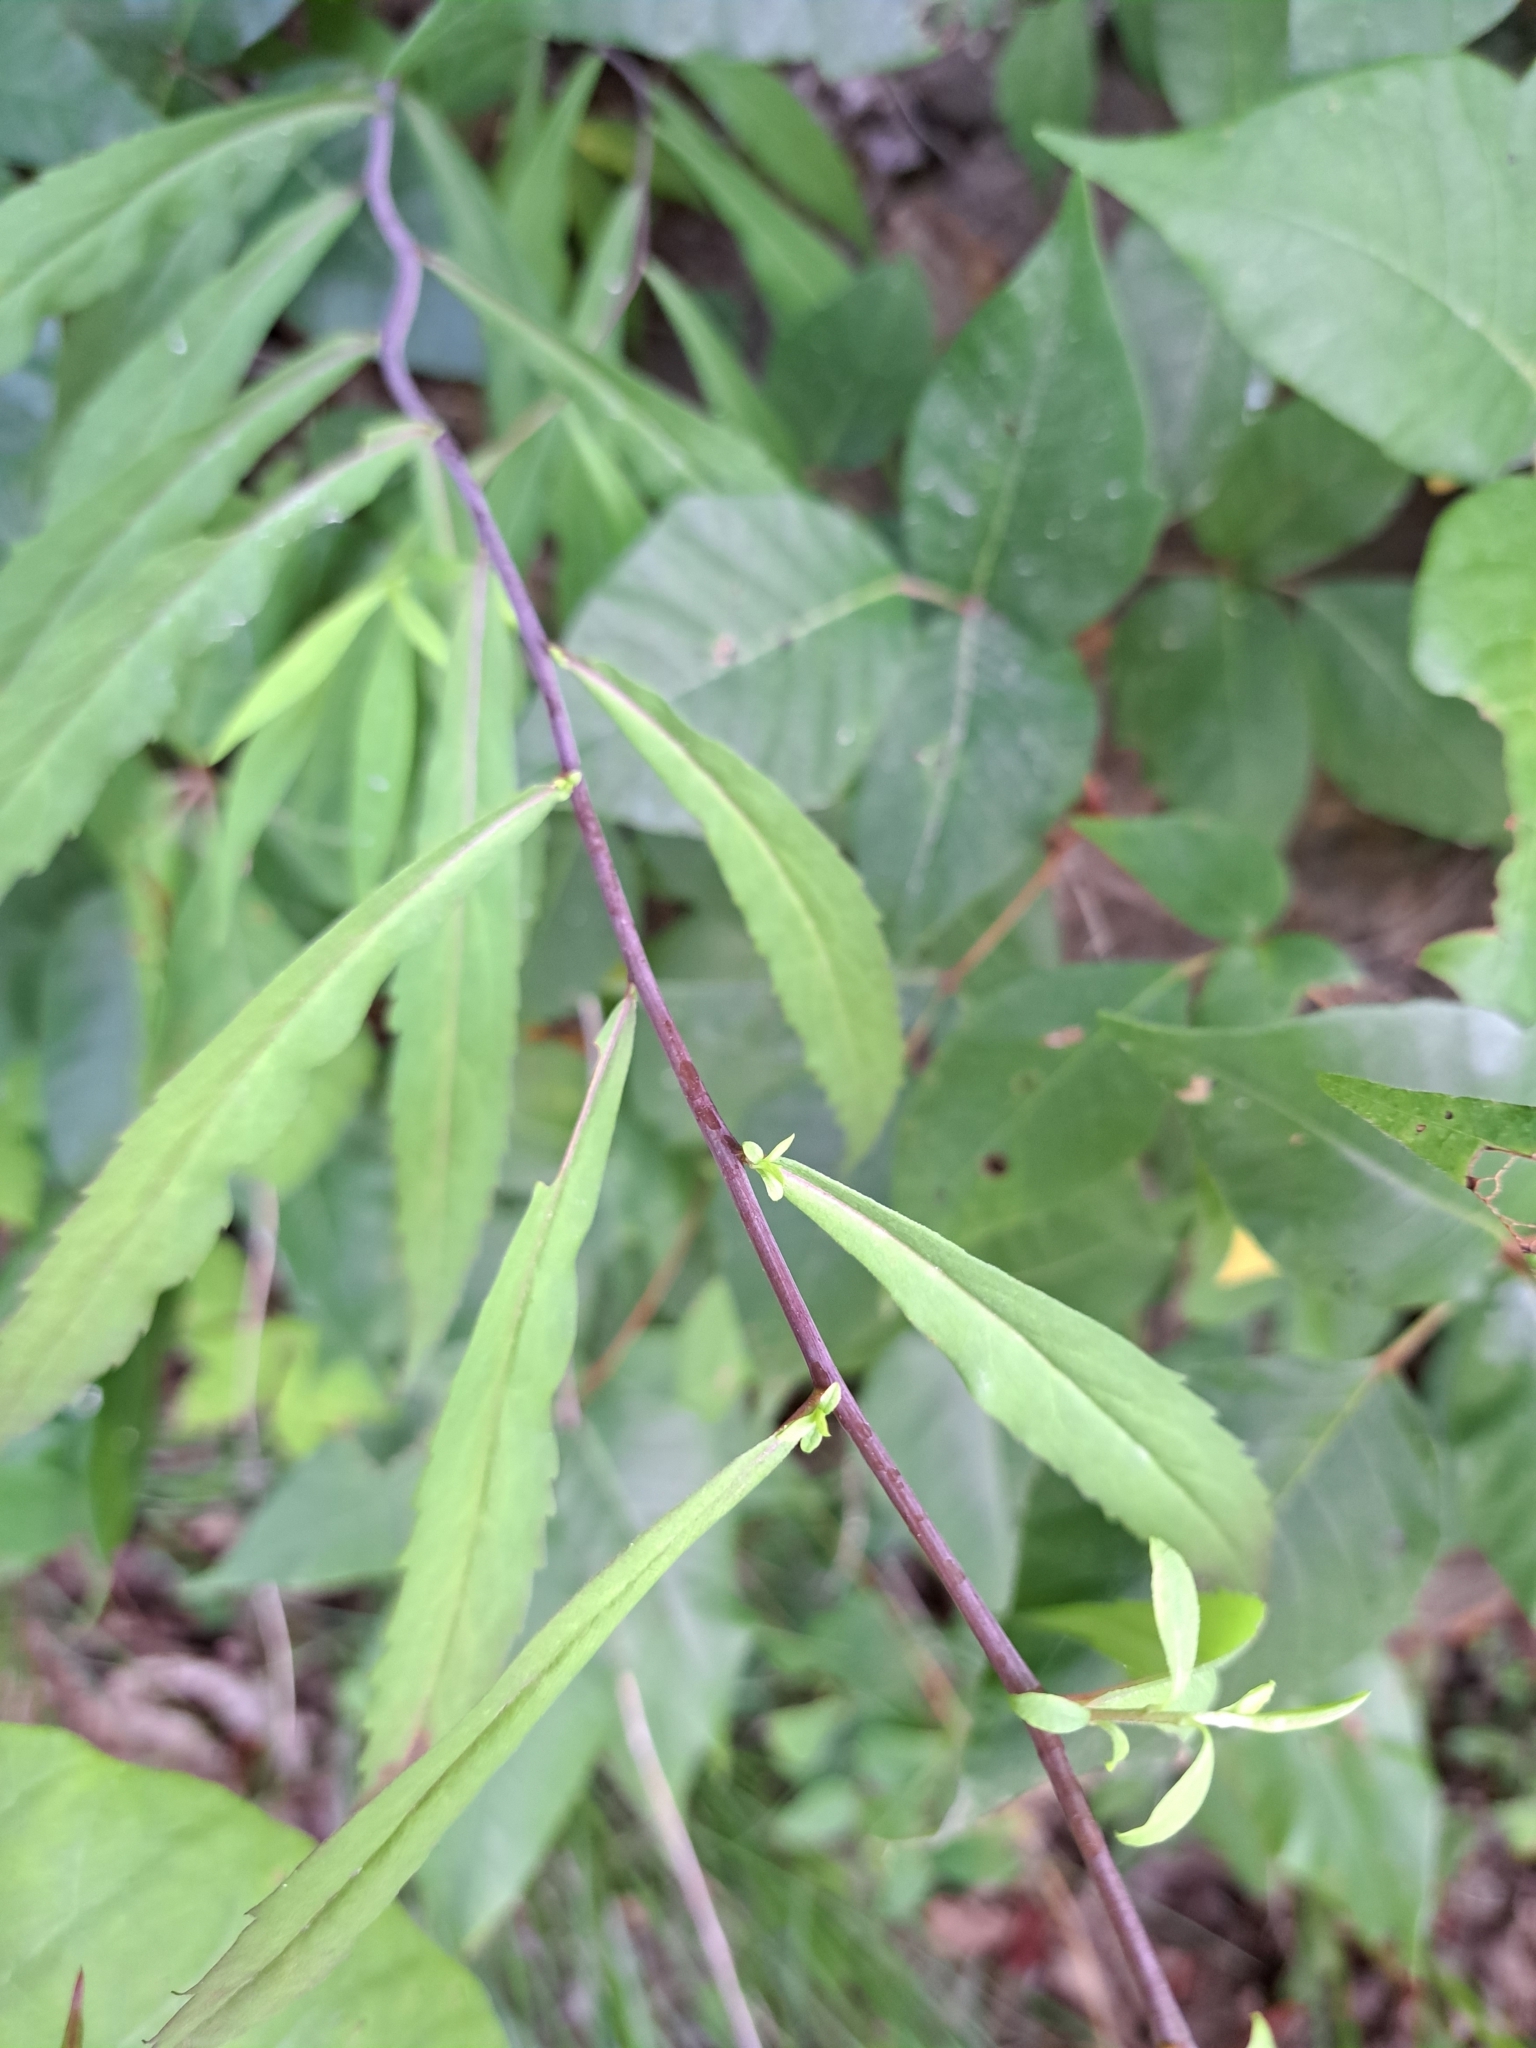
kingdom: Plantae
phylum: Tracheophyta
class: Magnoliopsida
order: Asterales
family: Asteraceae
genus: Solidago
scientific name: Solidago caesia
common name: Woodland goldenrod
